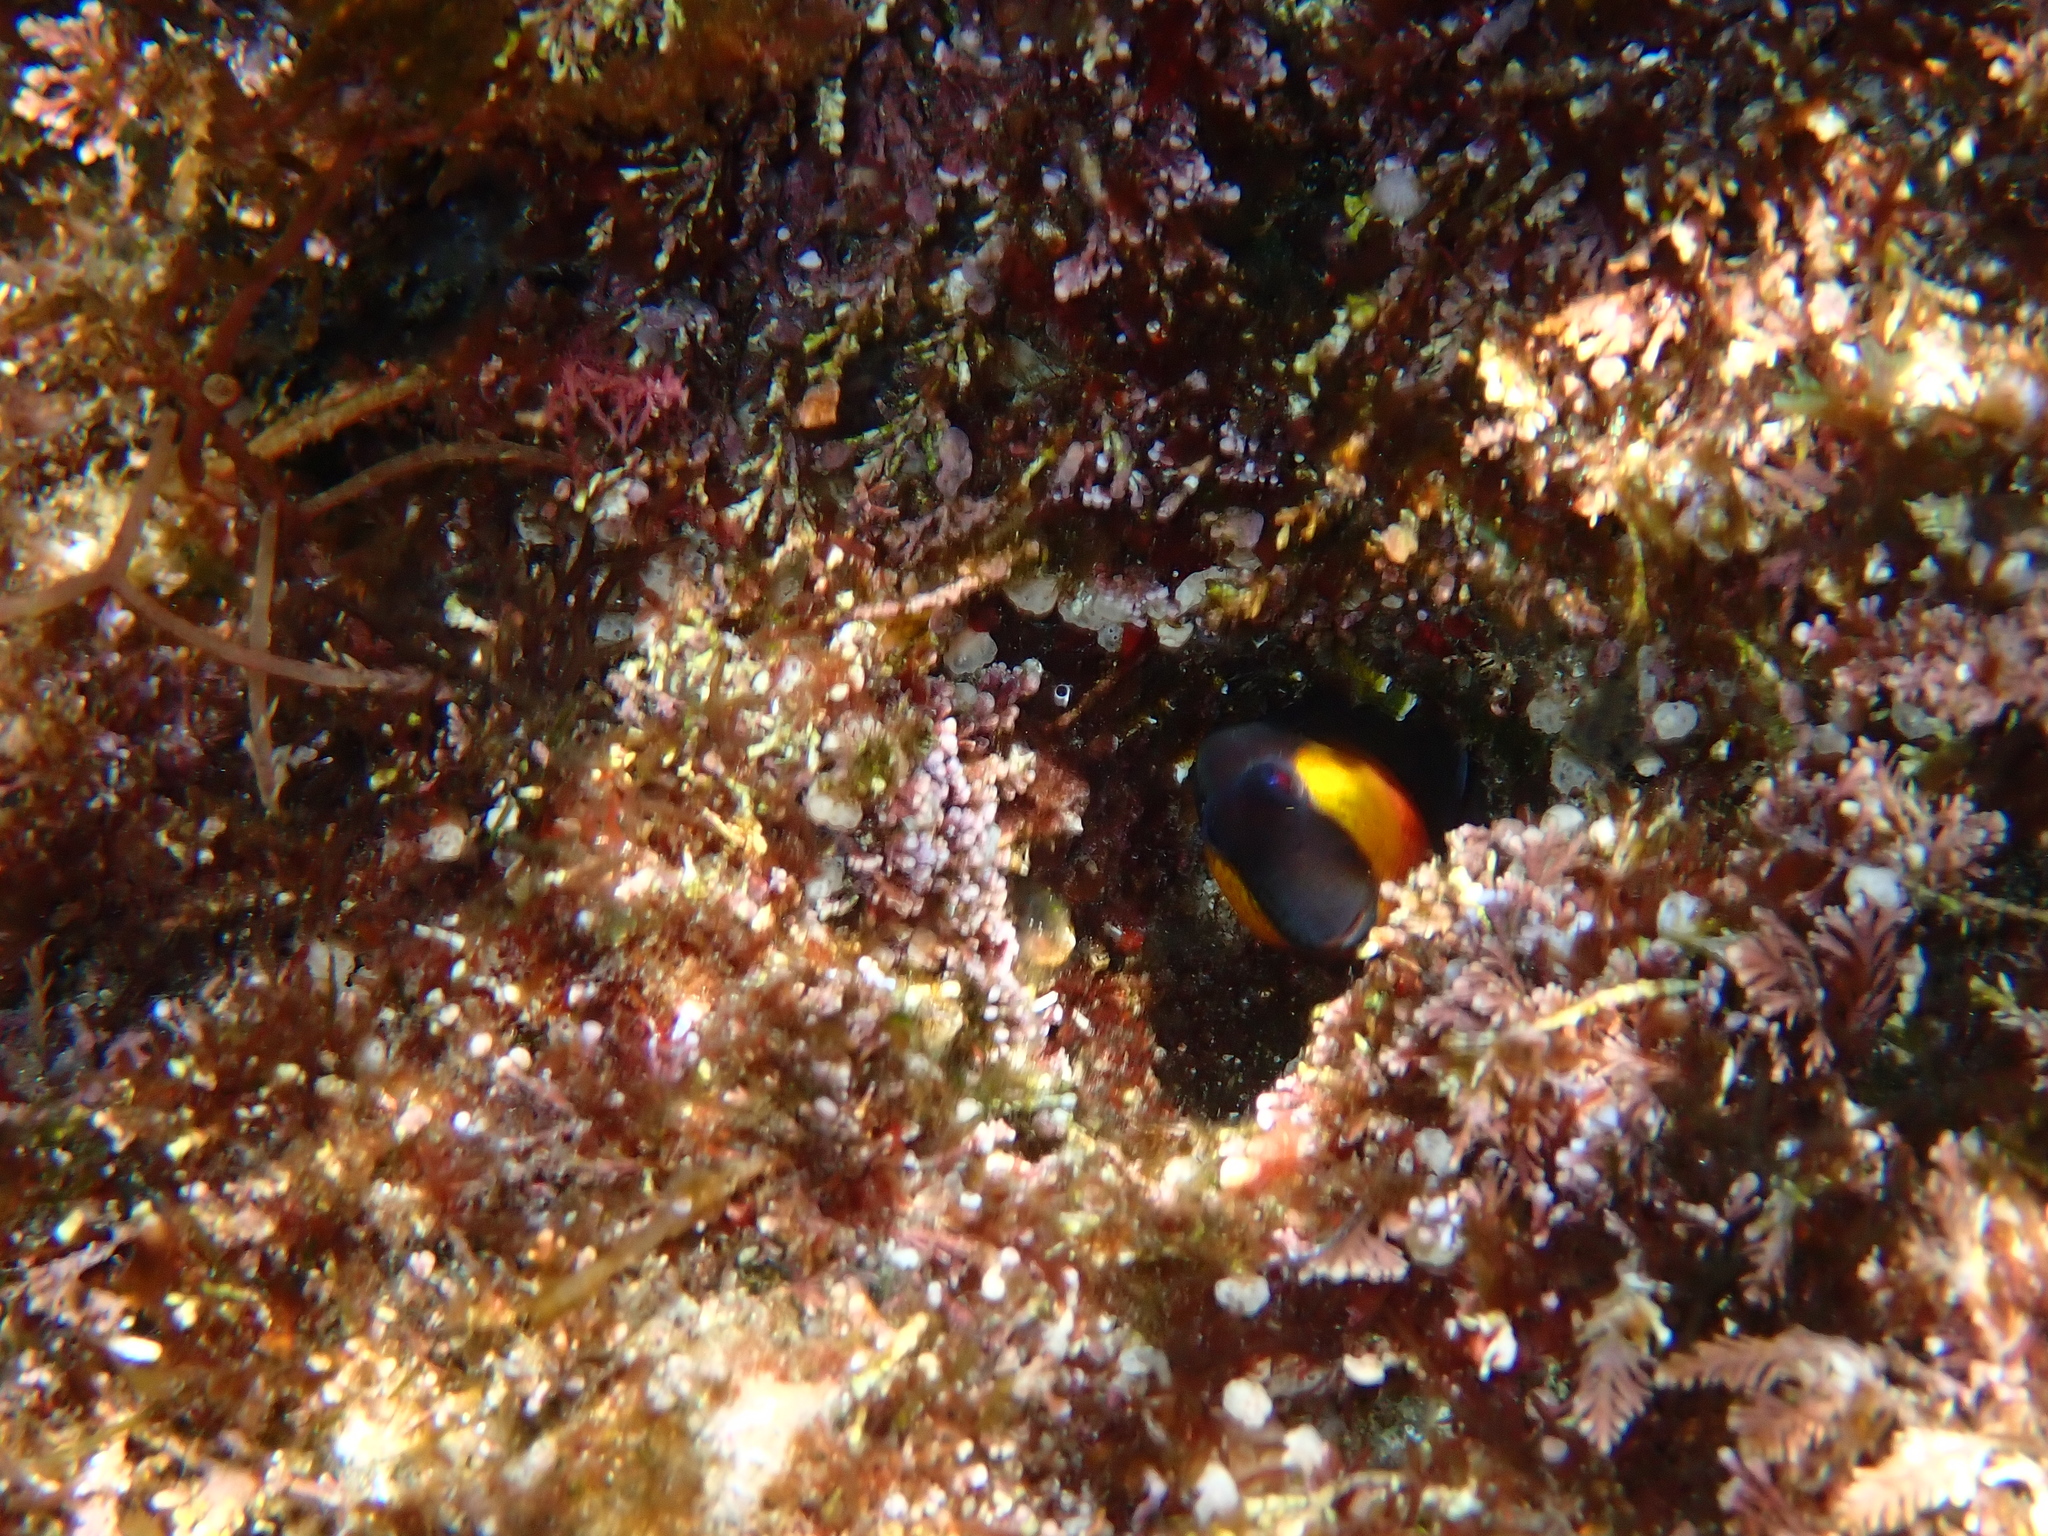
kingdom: Animalia
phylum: Chordata
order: Perciformes
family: Blenniidae
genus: Microlipophrys
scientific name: Microlipophrys canevae
